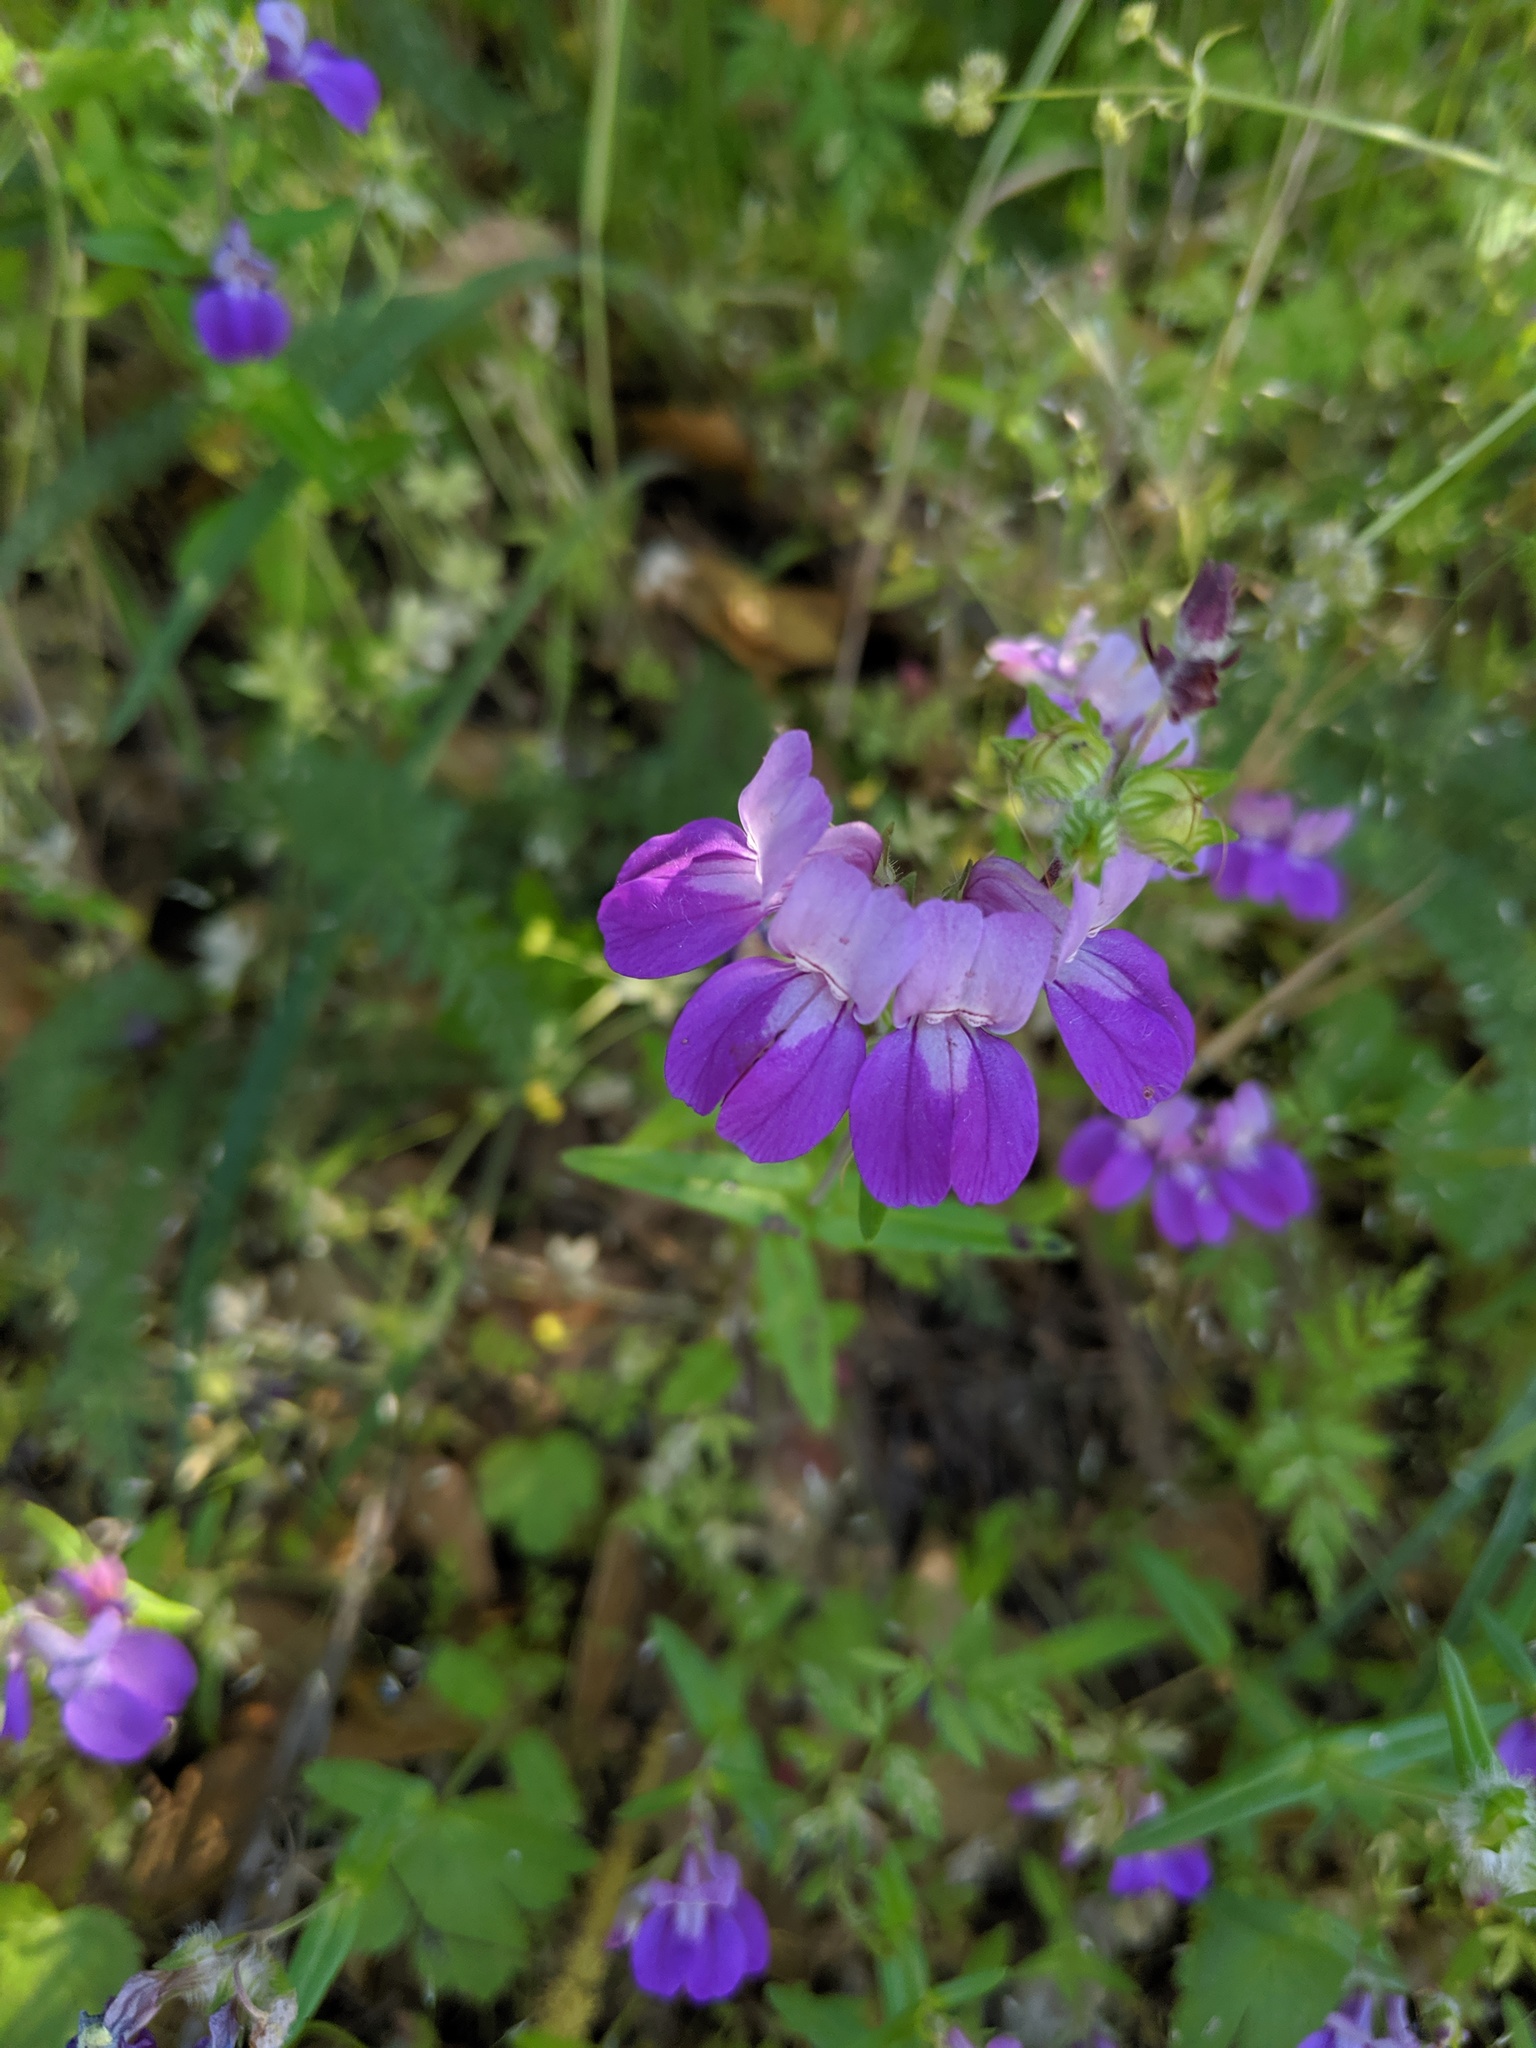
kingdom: Plantae
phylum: Tracheophyta
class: Magnoliopsida
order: Lamiales
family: Plantaginaceae
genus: Collinsia
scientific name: Collinsia heterophylla
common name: Chinese-houses
